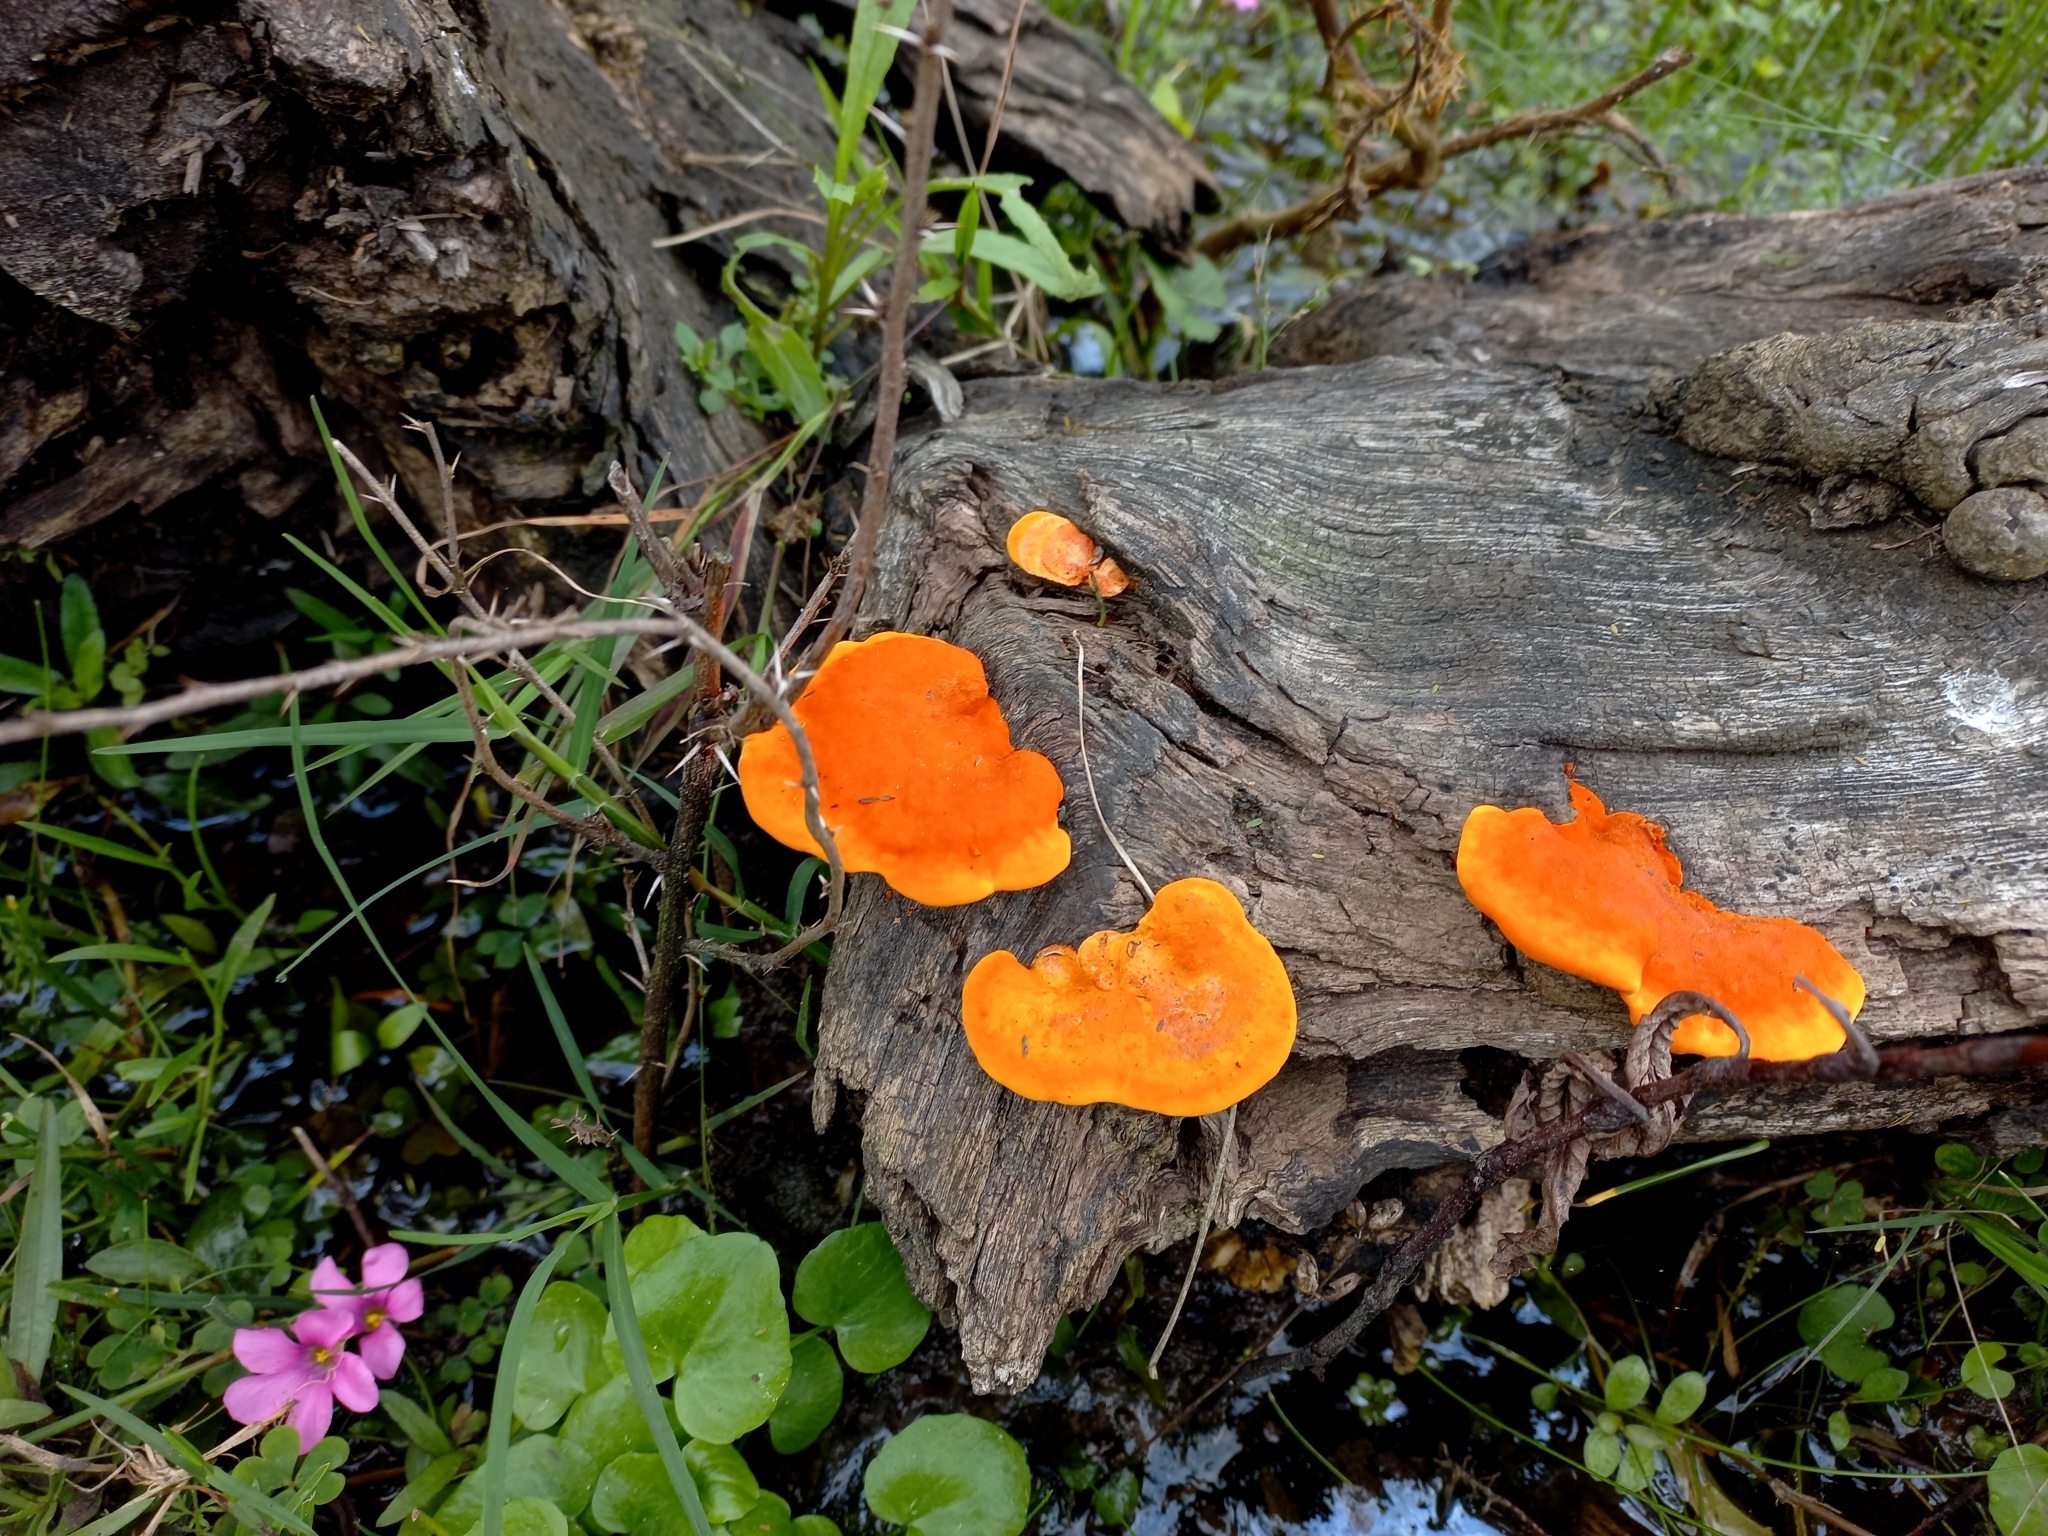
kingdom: Fungi
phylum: Basidiomycota
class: Agaricomycetes
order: Polyporales
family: Polyporaceae
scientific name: Polyporaceae
